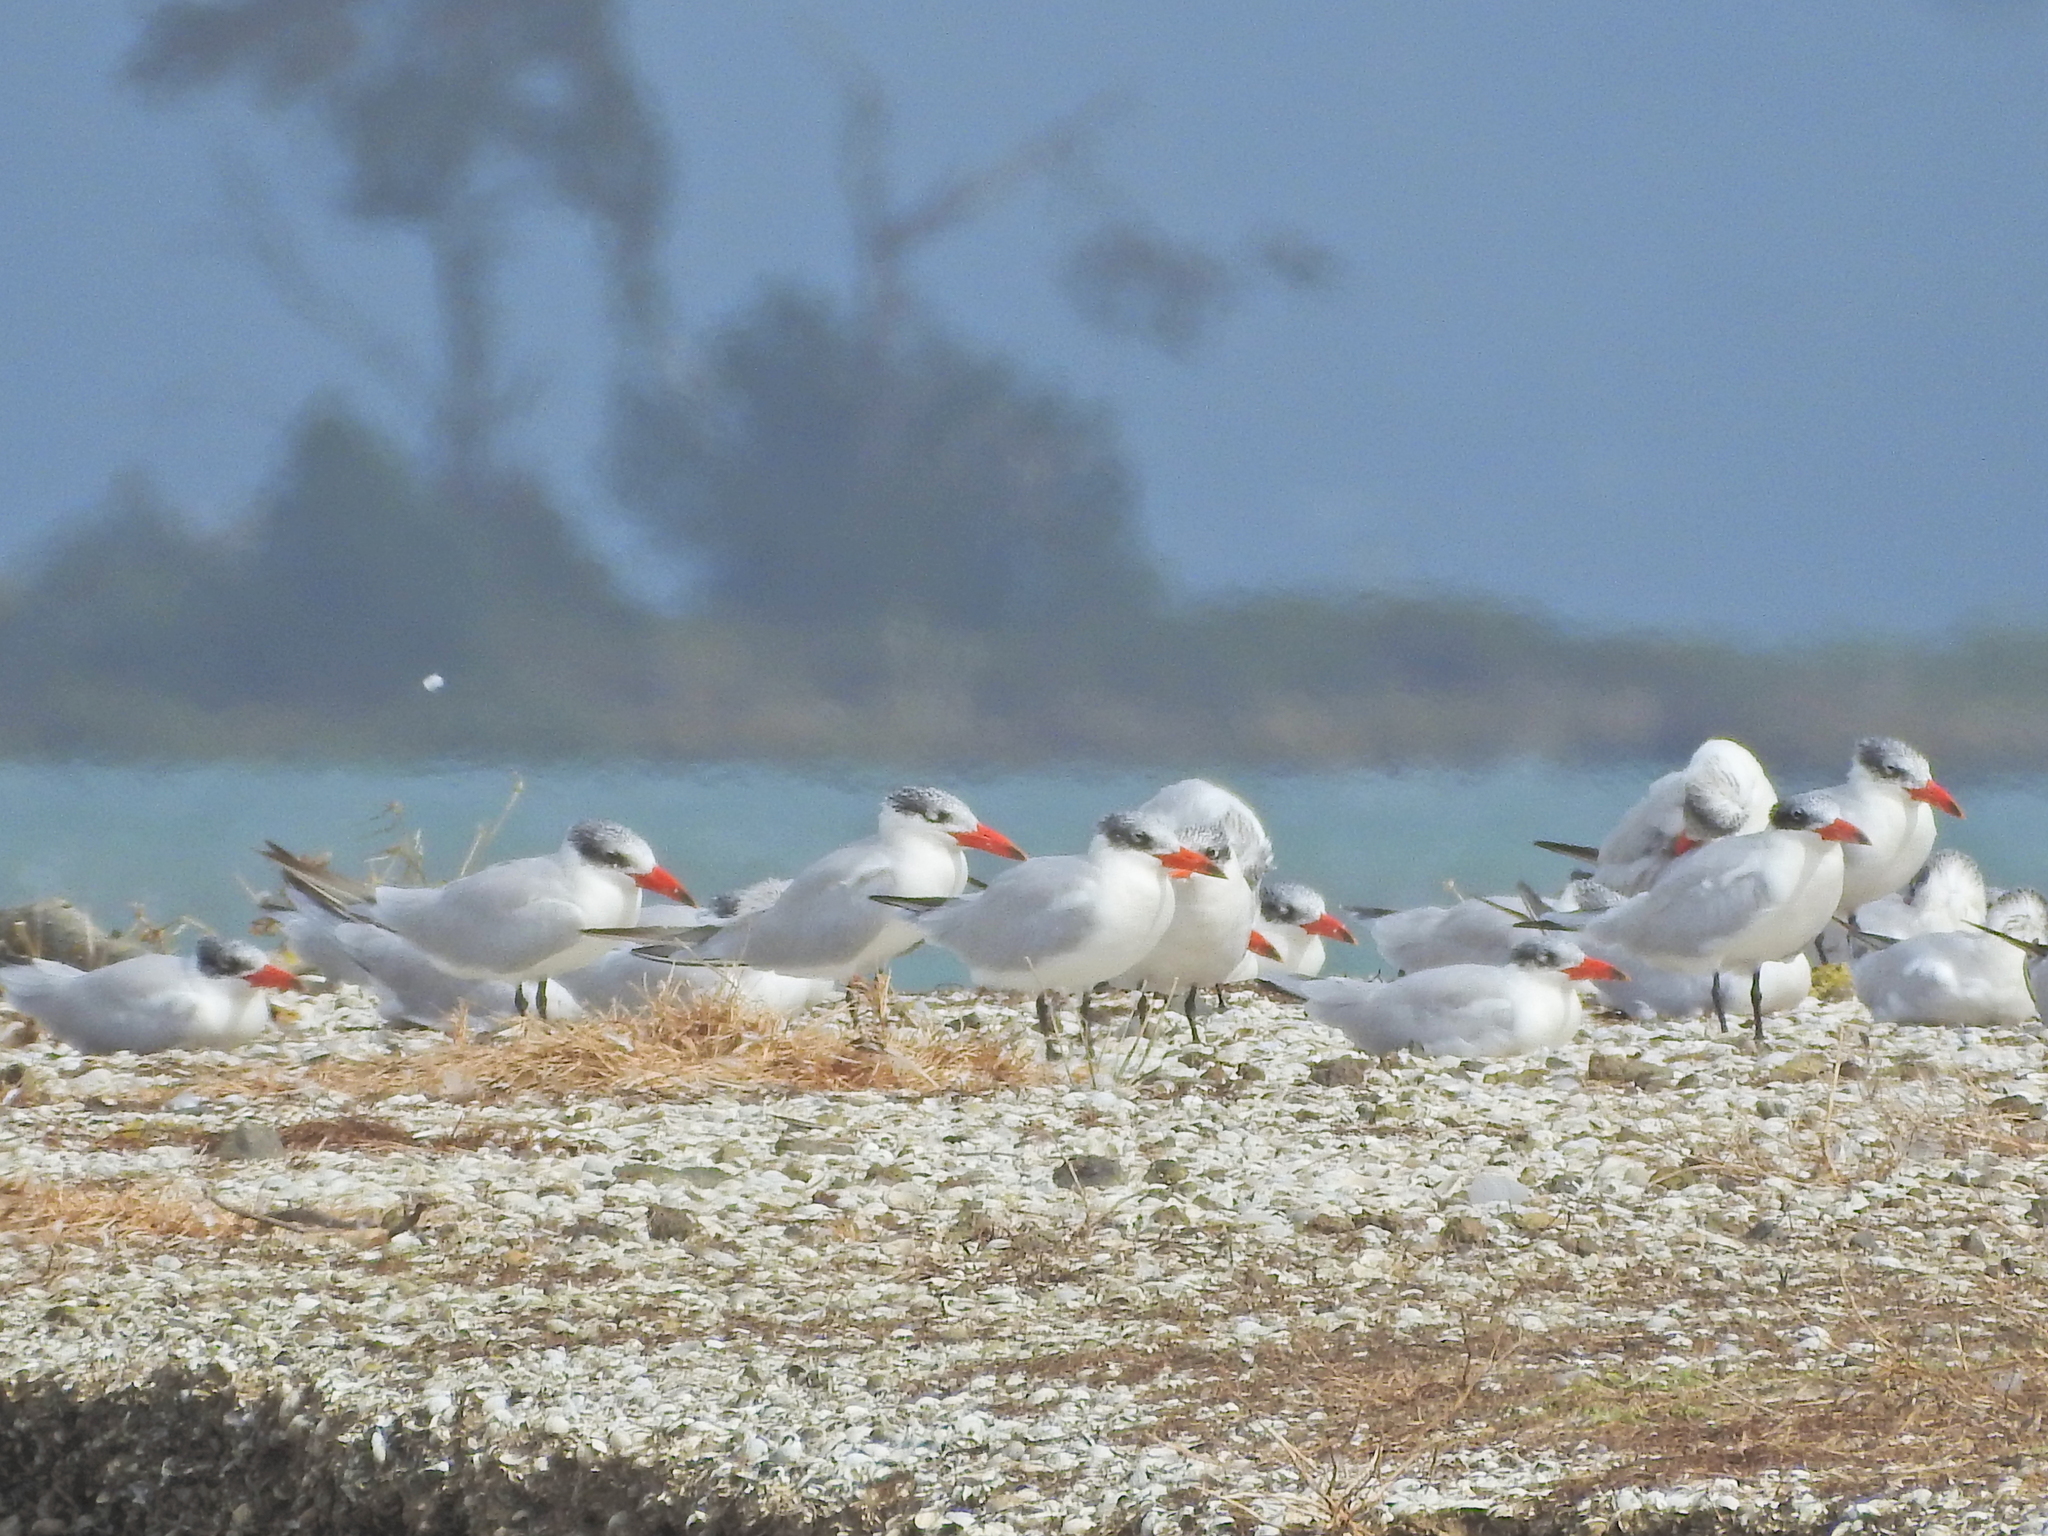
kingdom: Animalia
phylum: Chordata
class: Aves
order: Charadriiformes
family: Laridae
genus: Hydroprogne
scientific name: Hydroprogne caspia
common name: Caspian tern
